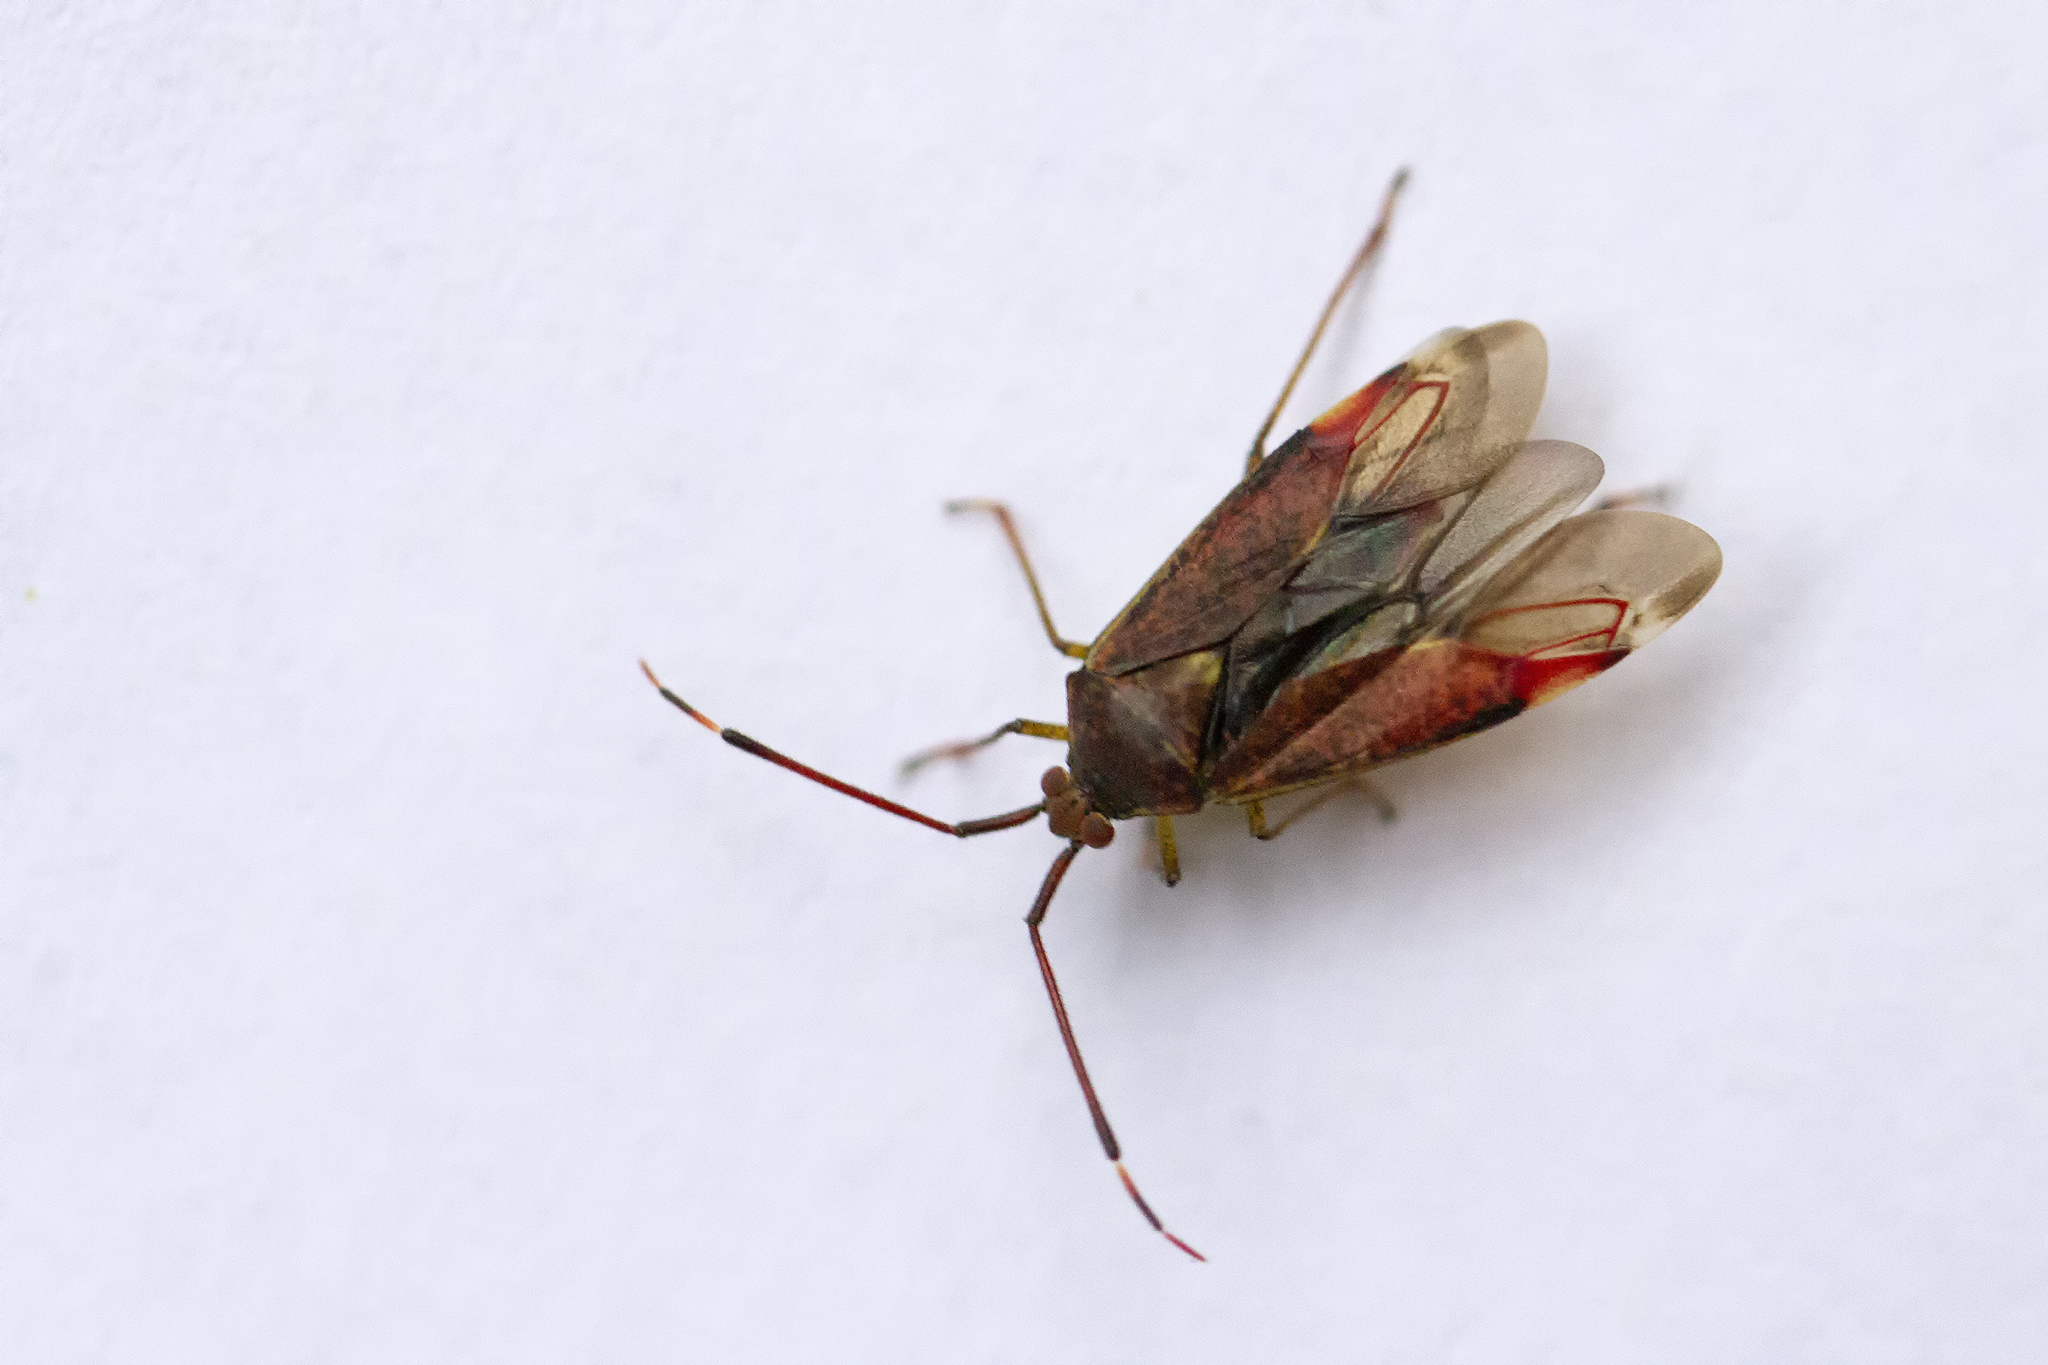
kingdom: Animalia
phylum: Arthropoda
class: Insecta
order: Hemiptera
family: Miridae
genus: Pantilius
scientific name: Pantilius tunicatus
